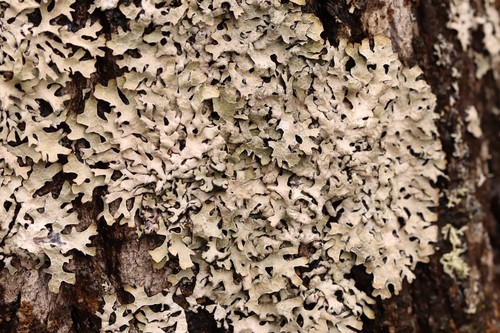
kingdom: Fungi
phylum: Ascomycota
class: Lecanoromycetes
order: Lecanorales
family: Parmeliaceae
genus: Parmelia
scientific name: Parmelia sulcata
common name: Netted shield lichen
